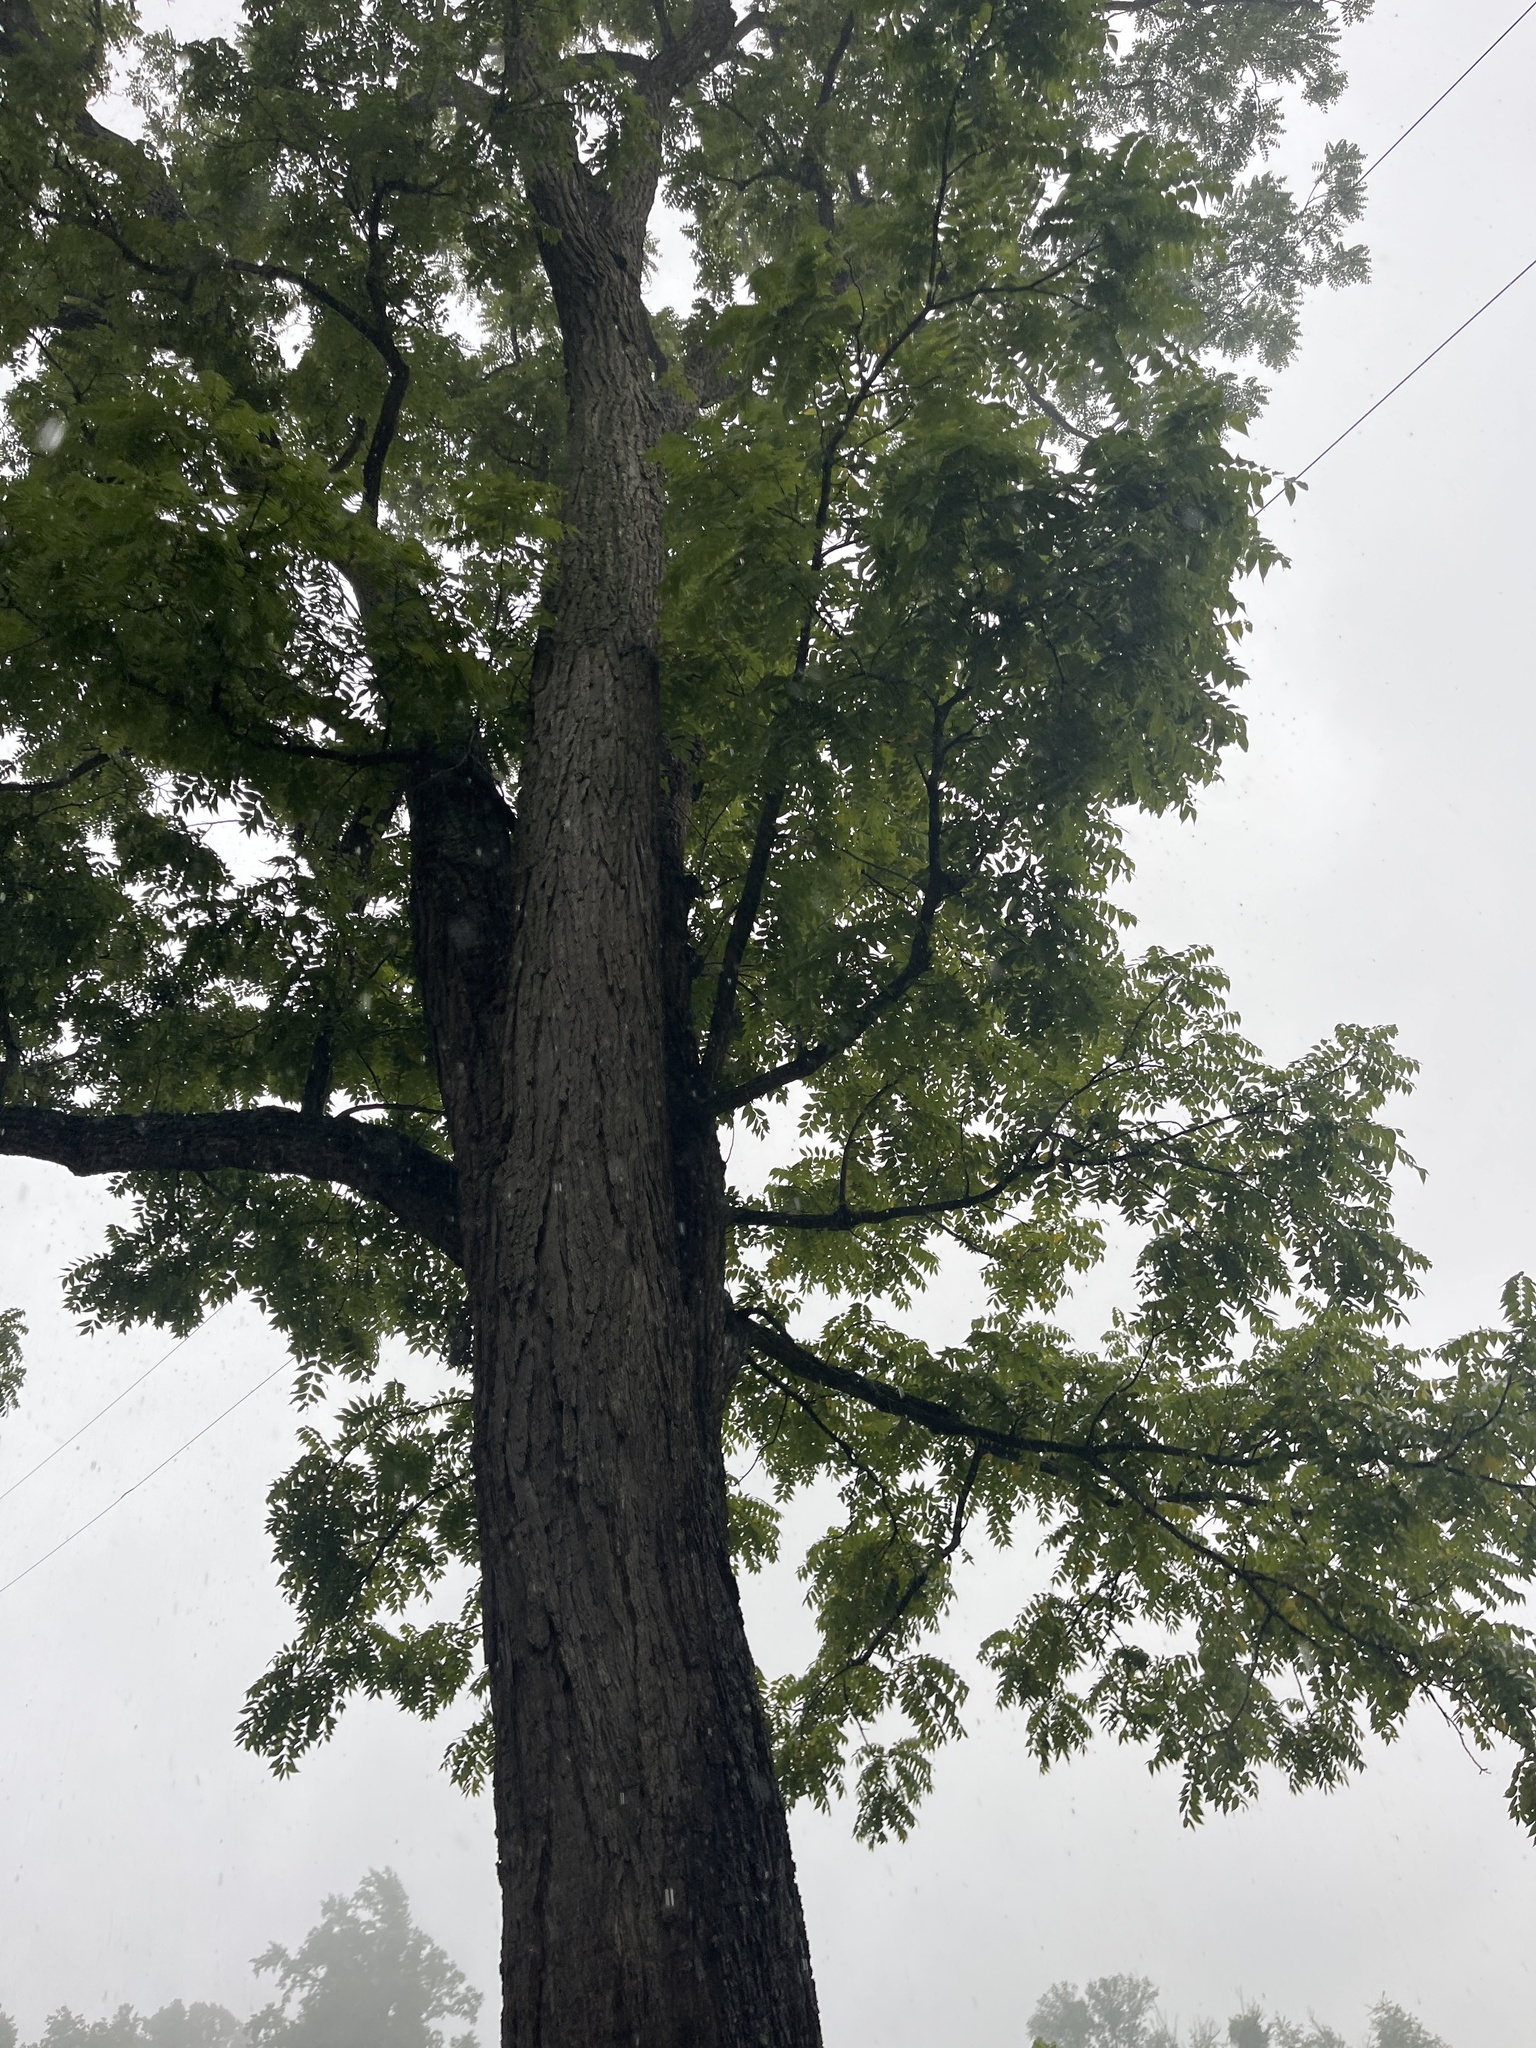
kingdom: Plantae
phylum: Tracheophyta
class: Magnoliopsida
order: Fagales
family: Juglandaceae
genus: Juglans
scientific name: Juglans nigra
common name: Black walnut
